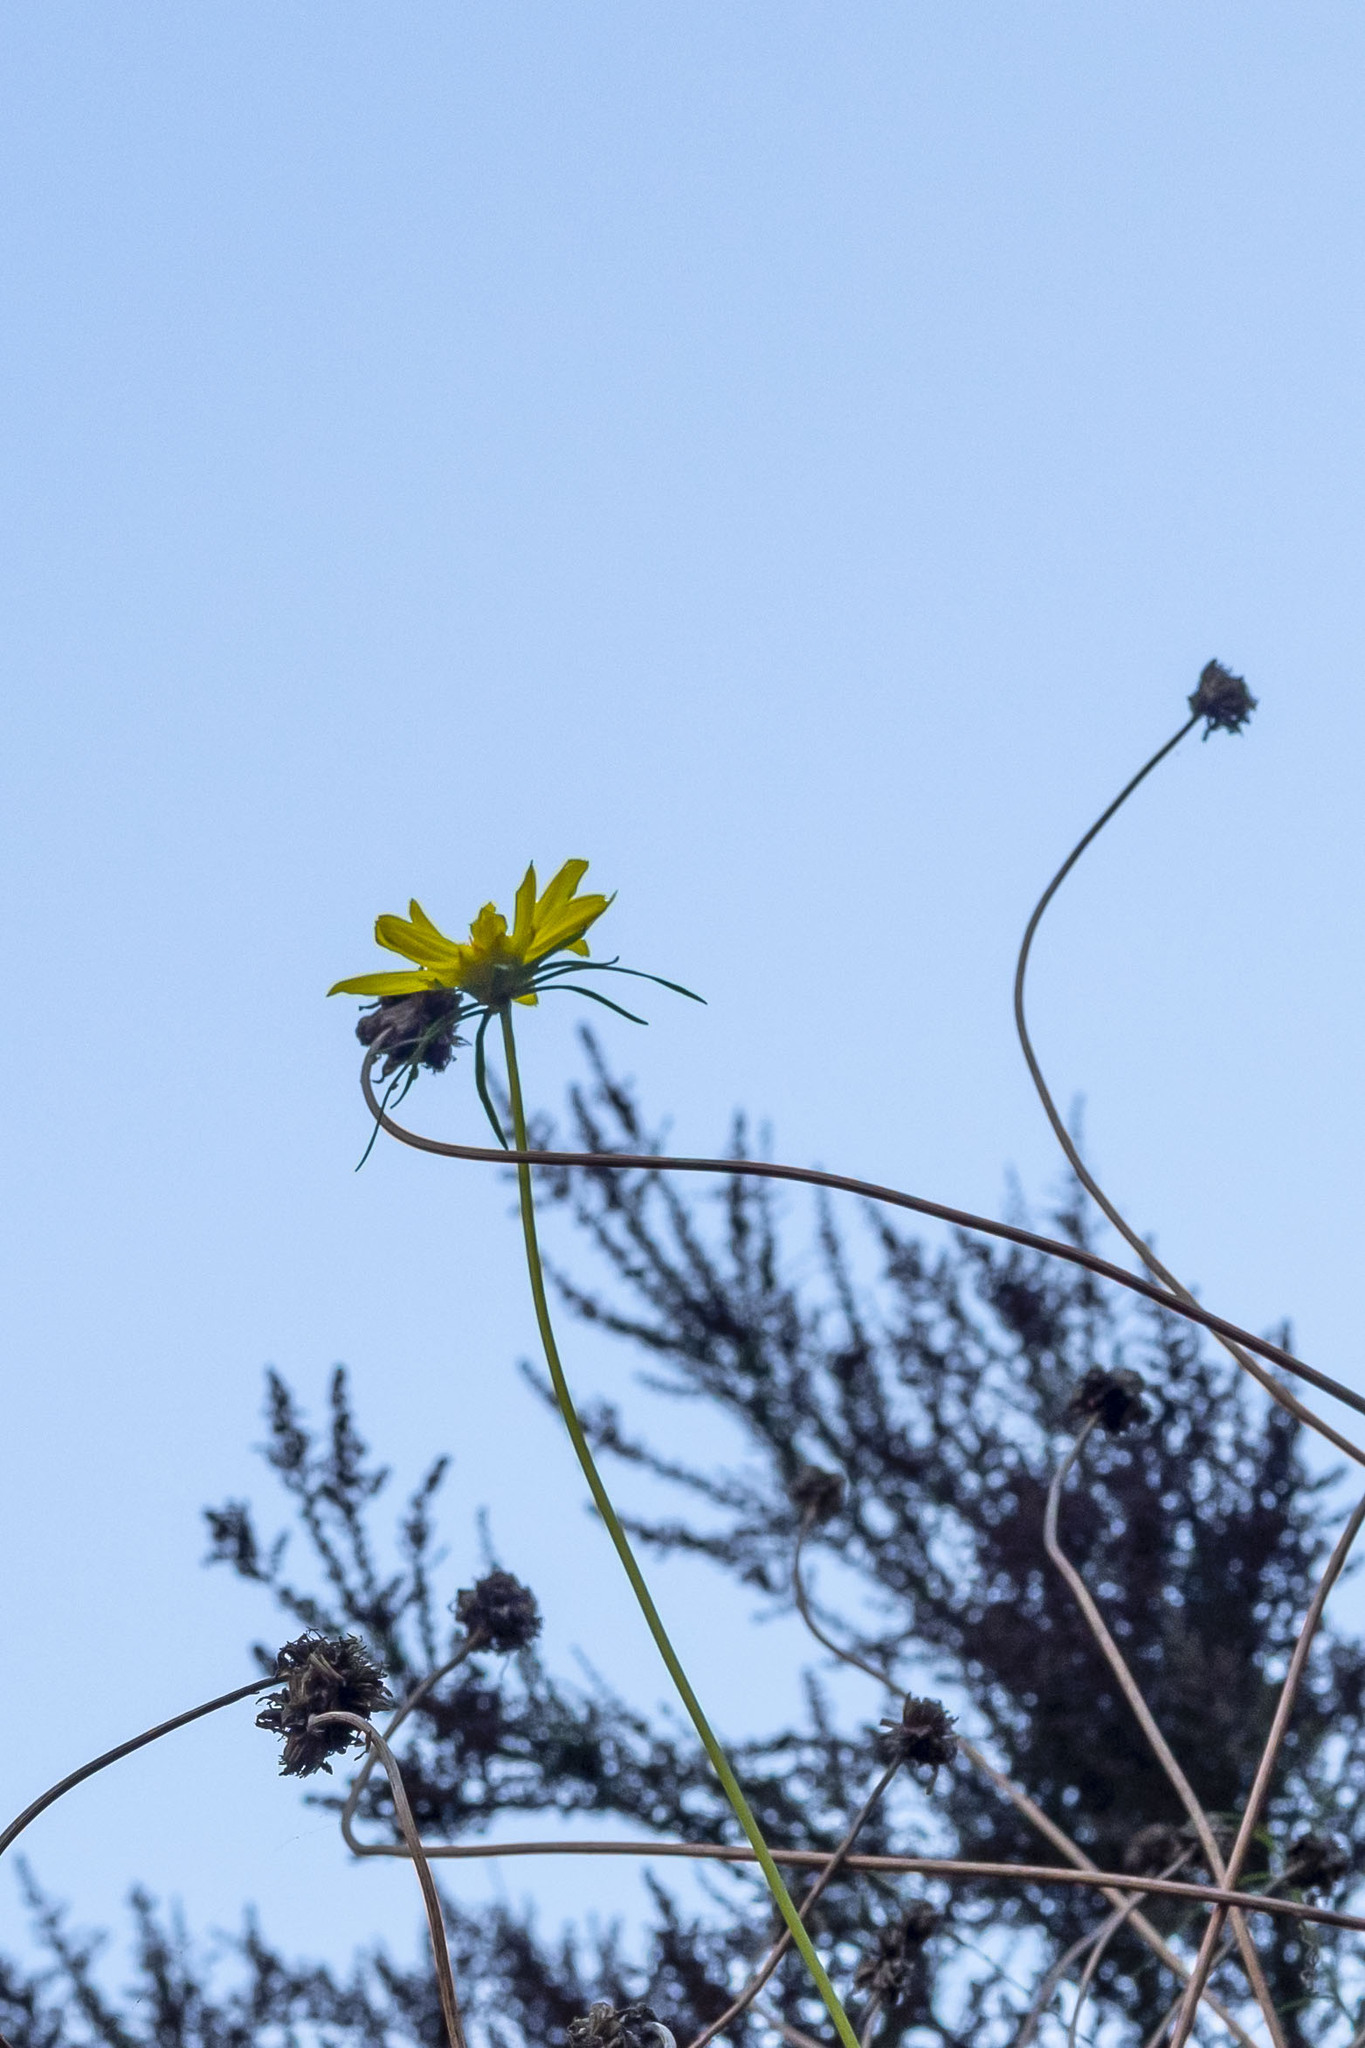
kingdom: Plantae
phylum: Tracheophyta
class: Magnoliopsida
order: Asterales
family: Asteraceae
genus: Coreopsis
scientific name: Coreopsis maritima
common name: Sea-dahlia
